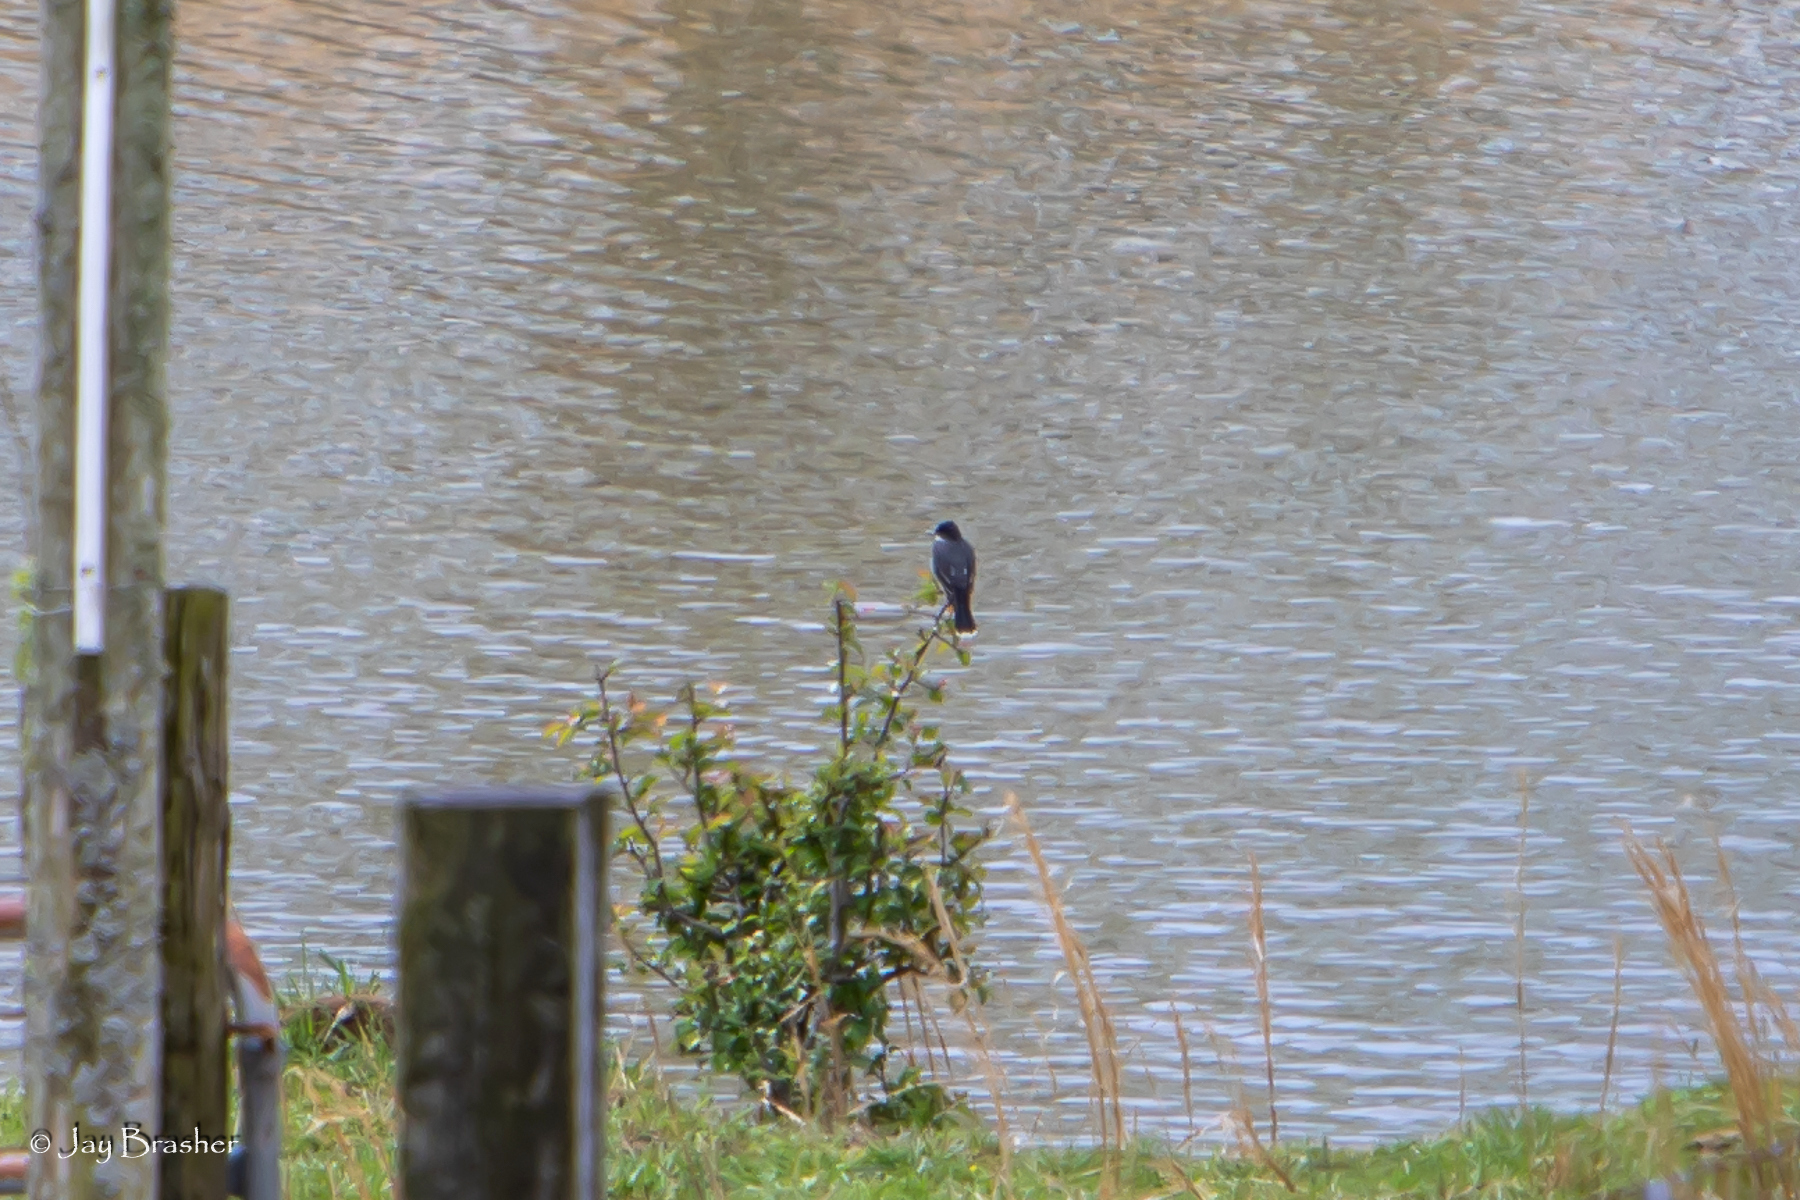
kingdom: Animalia
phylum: Chordata
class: Aves
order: Passeriformes
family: Tyrannidae
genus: Tyrannus
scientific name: Tyrannus tyrannus
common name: Eastern kingbird
